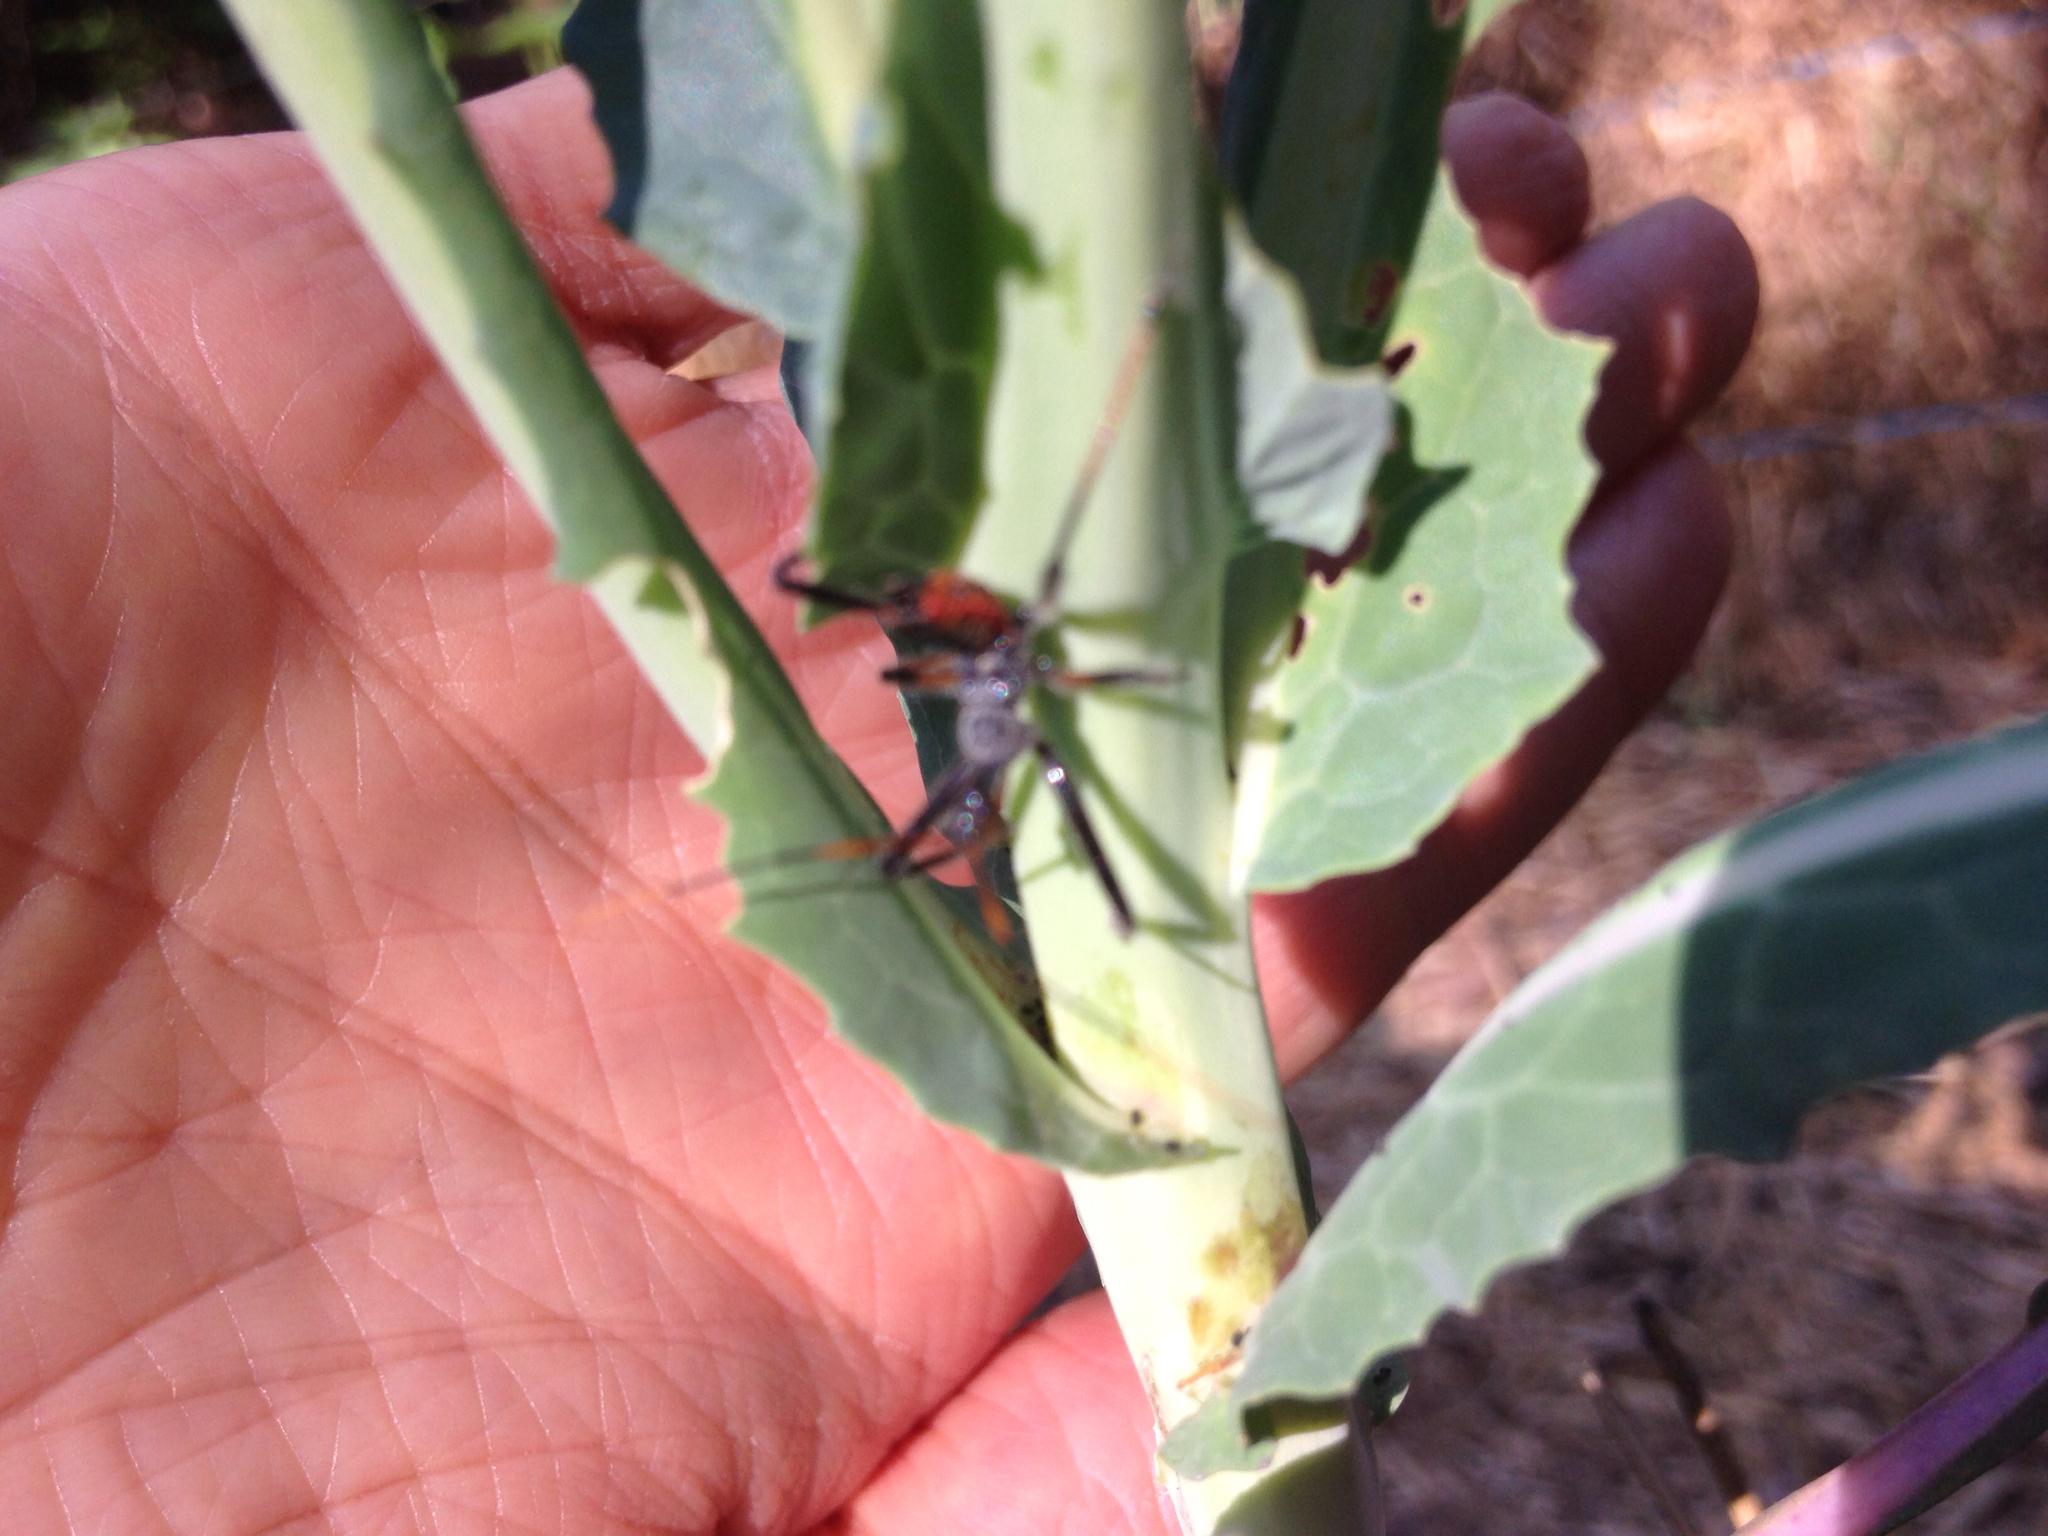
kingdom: Animalia
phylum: Arthropoda
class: Insecta
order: Hemiptera
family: Reduviidae
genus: Arilus
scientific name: Arilus cristatus
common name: North american wheel bug
